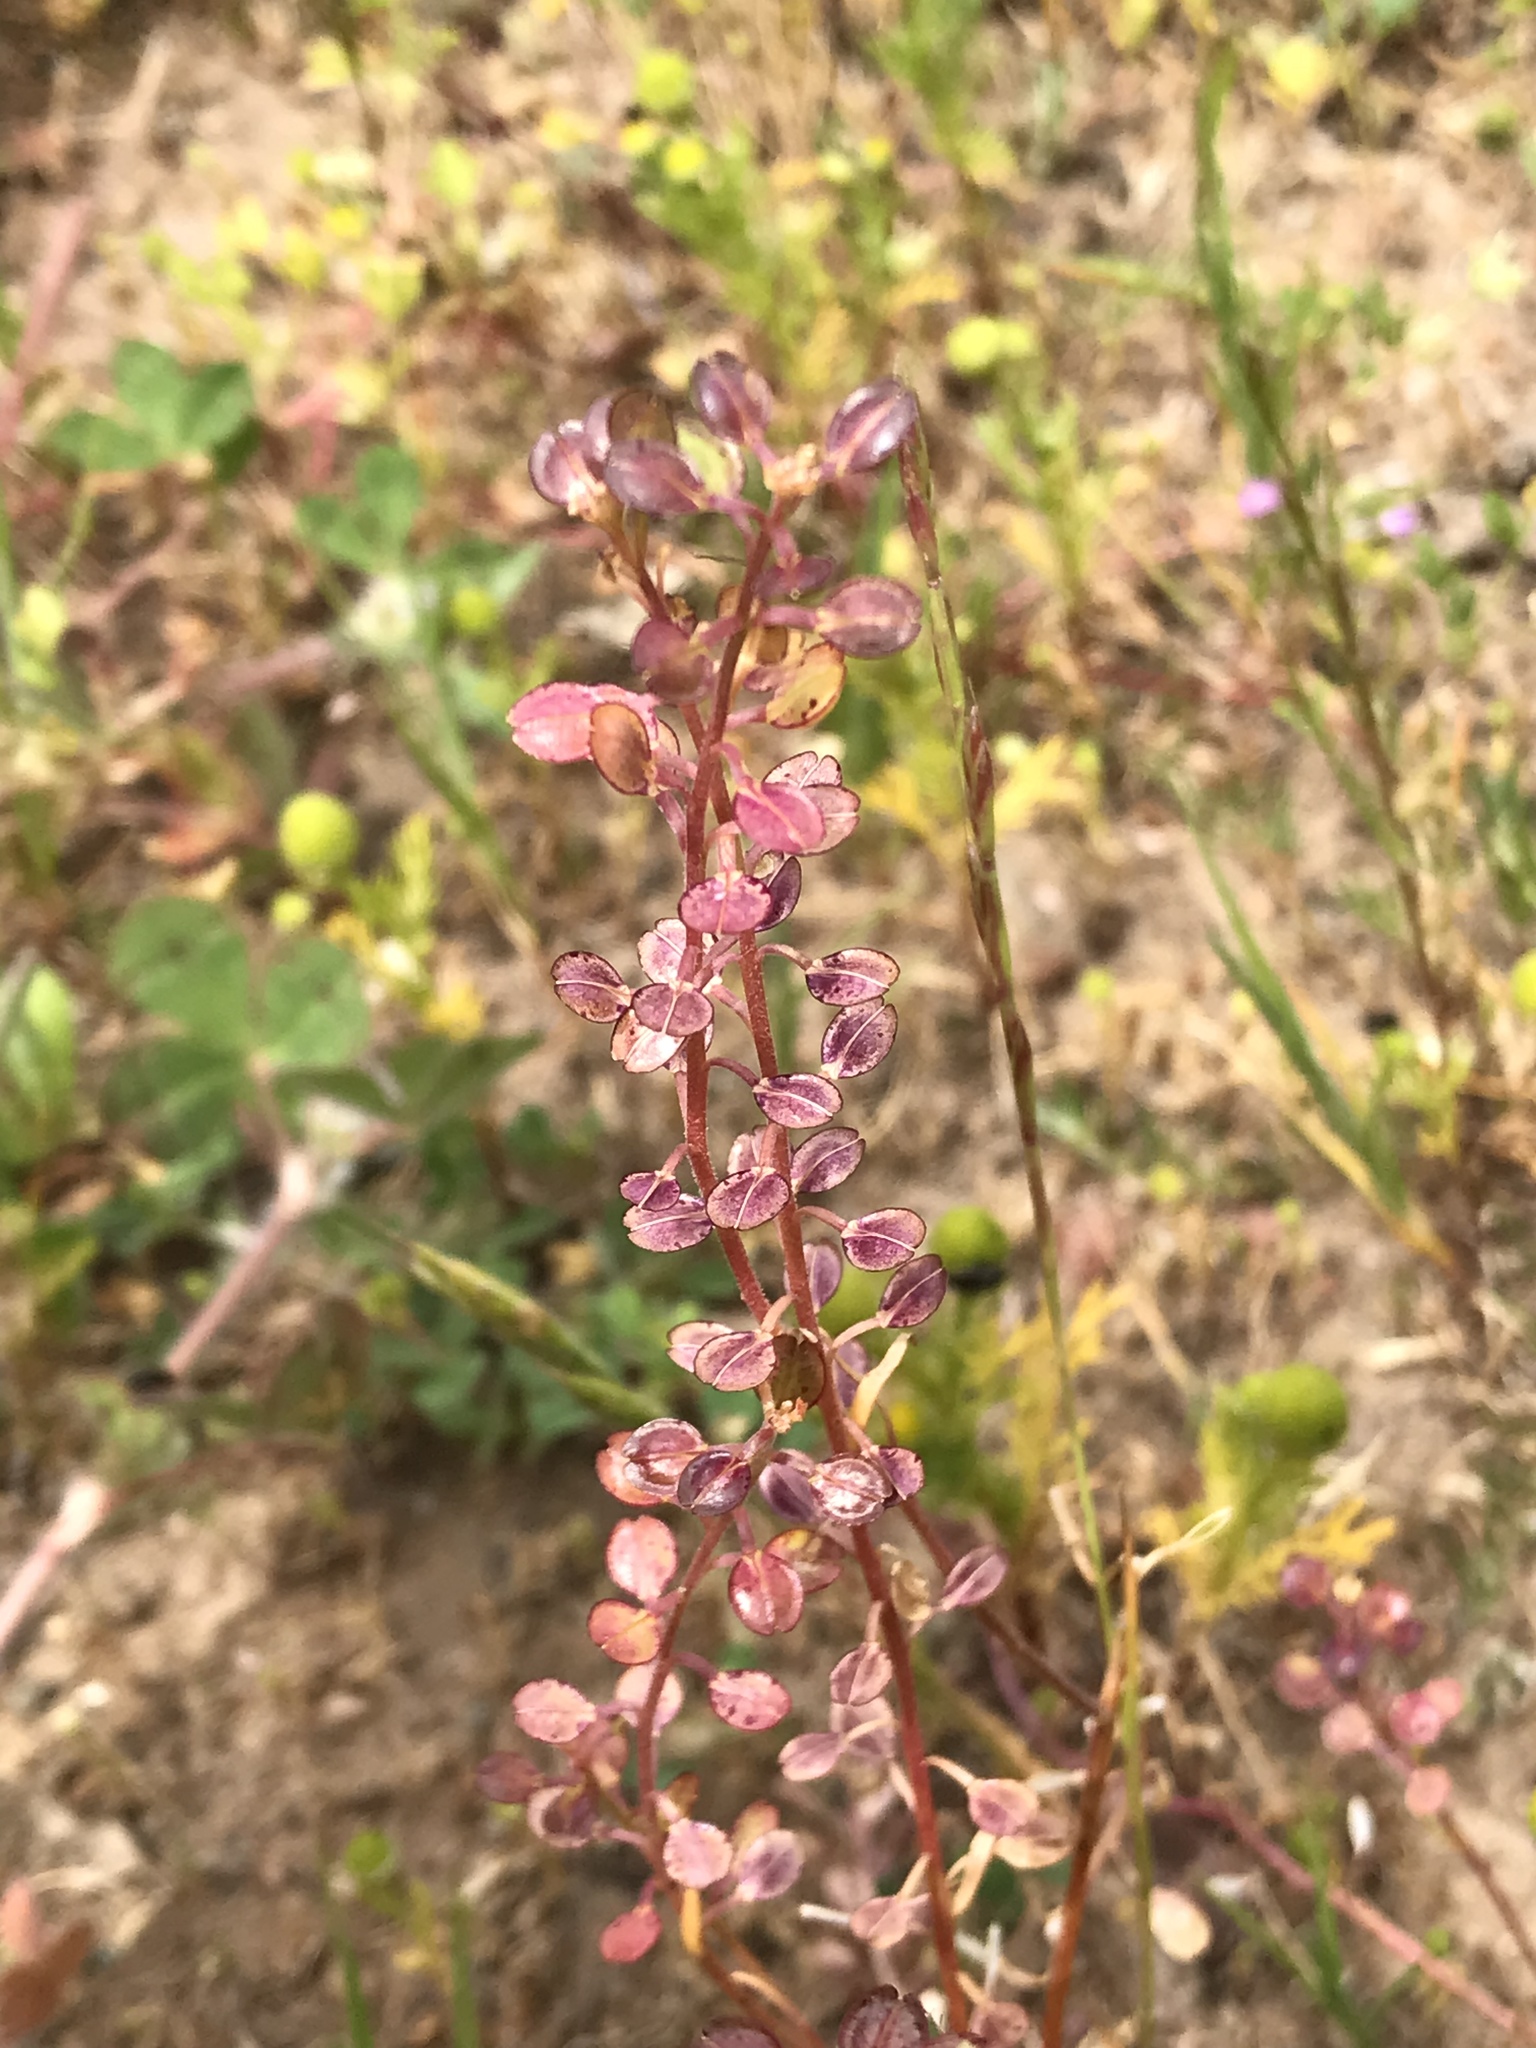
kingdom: Plantae
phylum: Tracheophyta
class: Magnoliopsida
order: Brassicales
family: Brassicaceae
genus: Lepidium
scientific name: Lepidium nitidum
